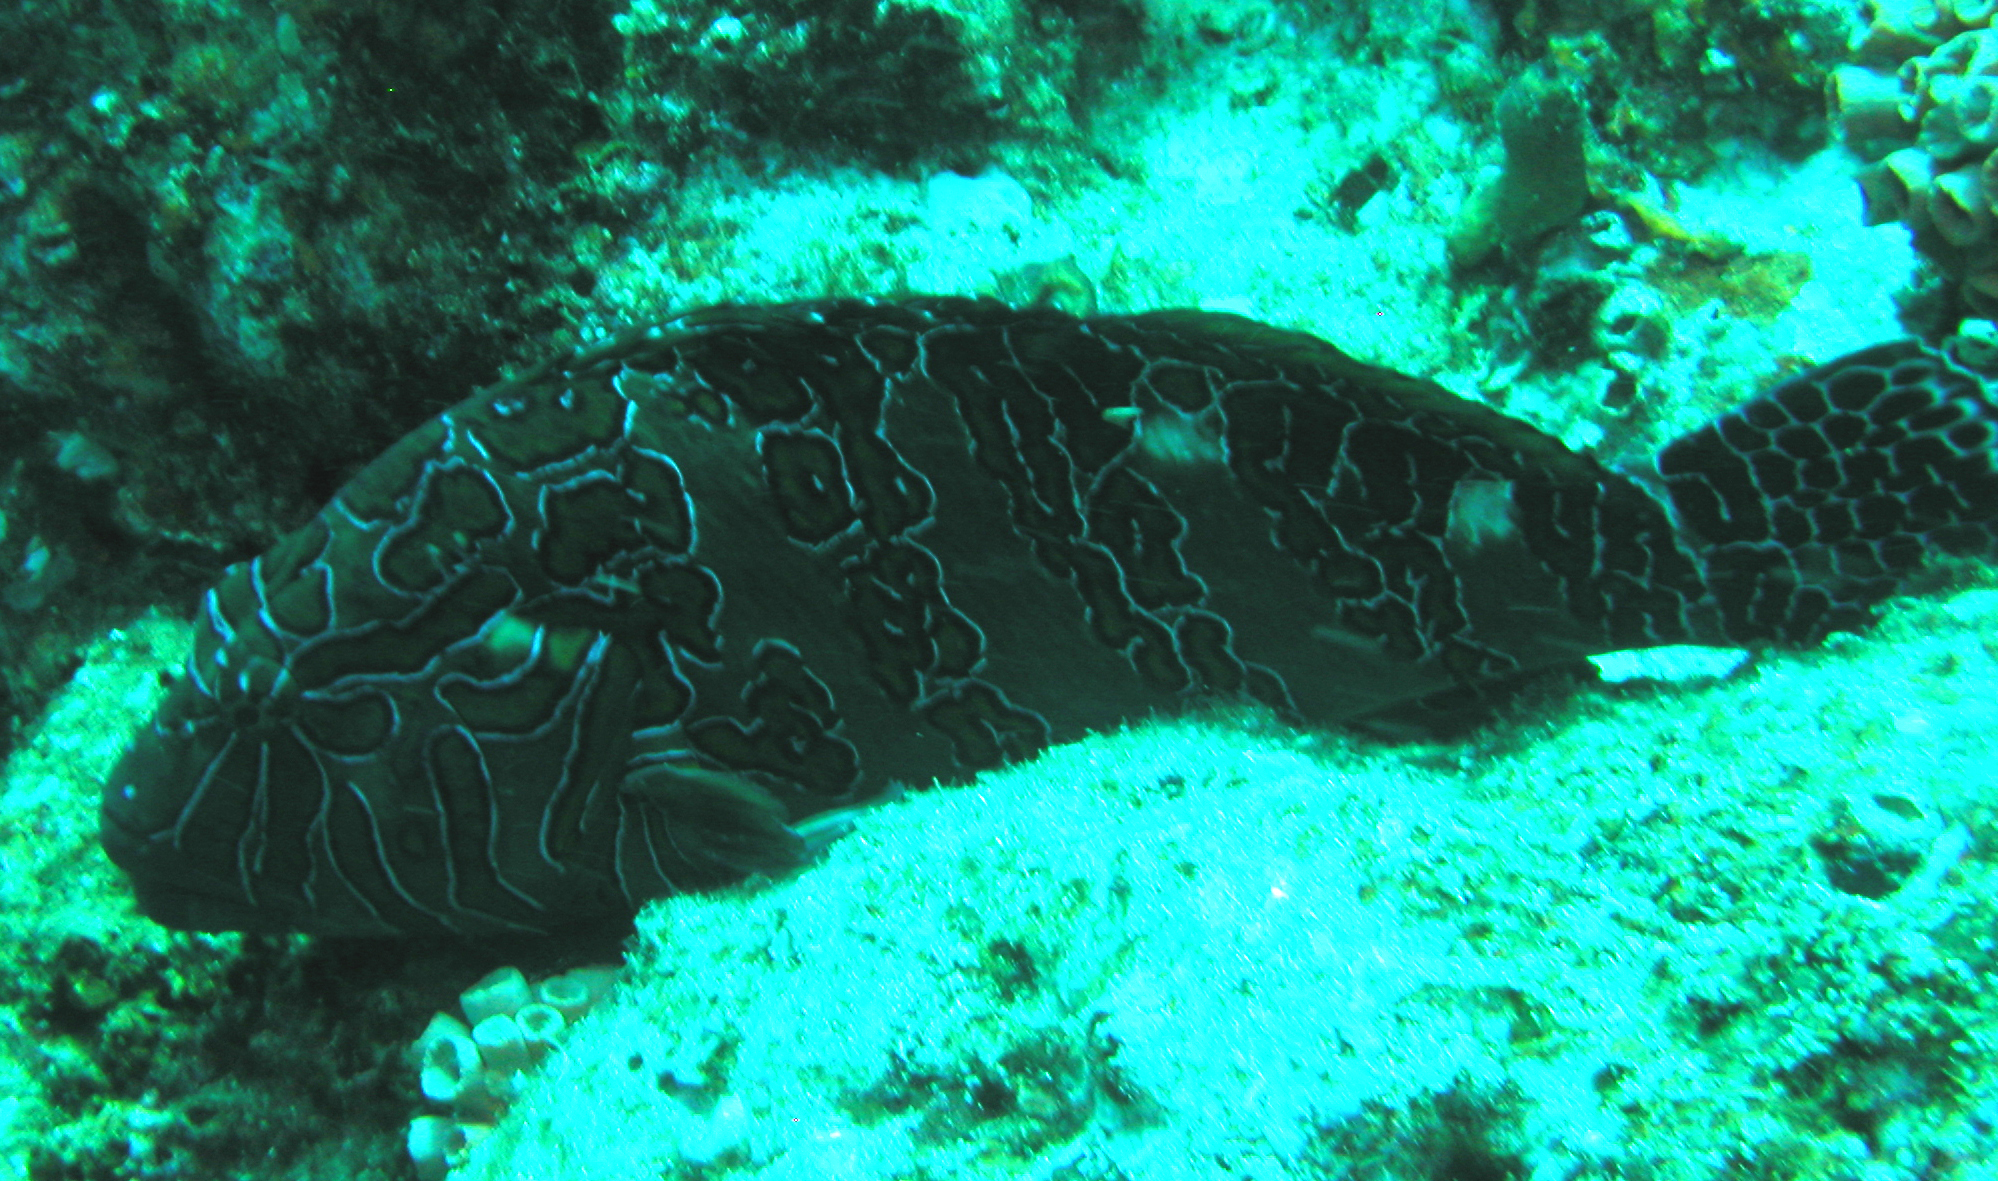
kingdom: Animalia
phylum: Chordata
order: Perciformes
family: Cirrhitidae
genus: Cirrhitus
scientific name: Cirrhitus rivulatus
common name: Giant hawkfish
